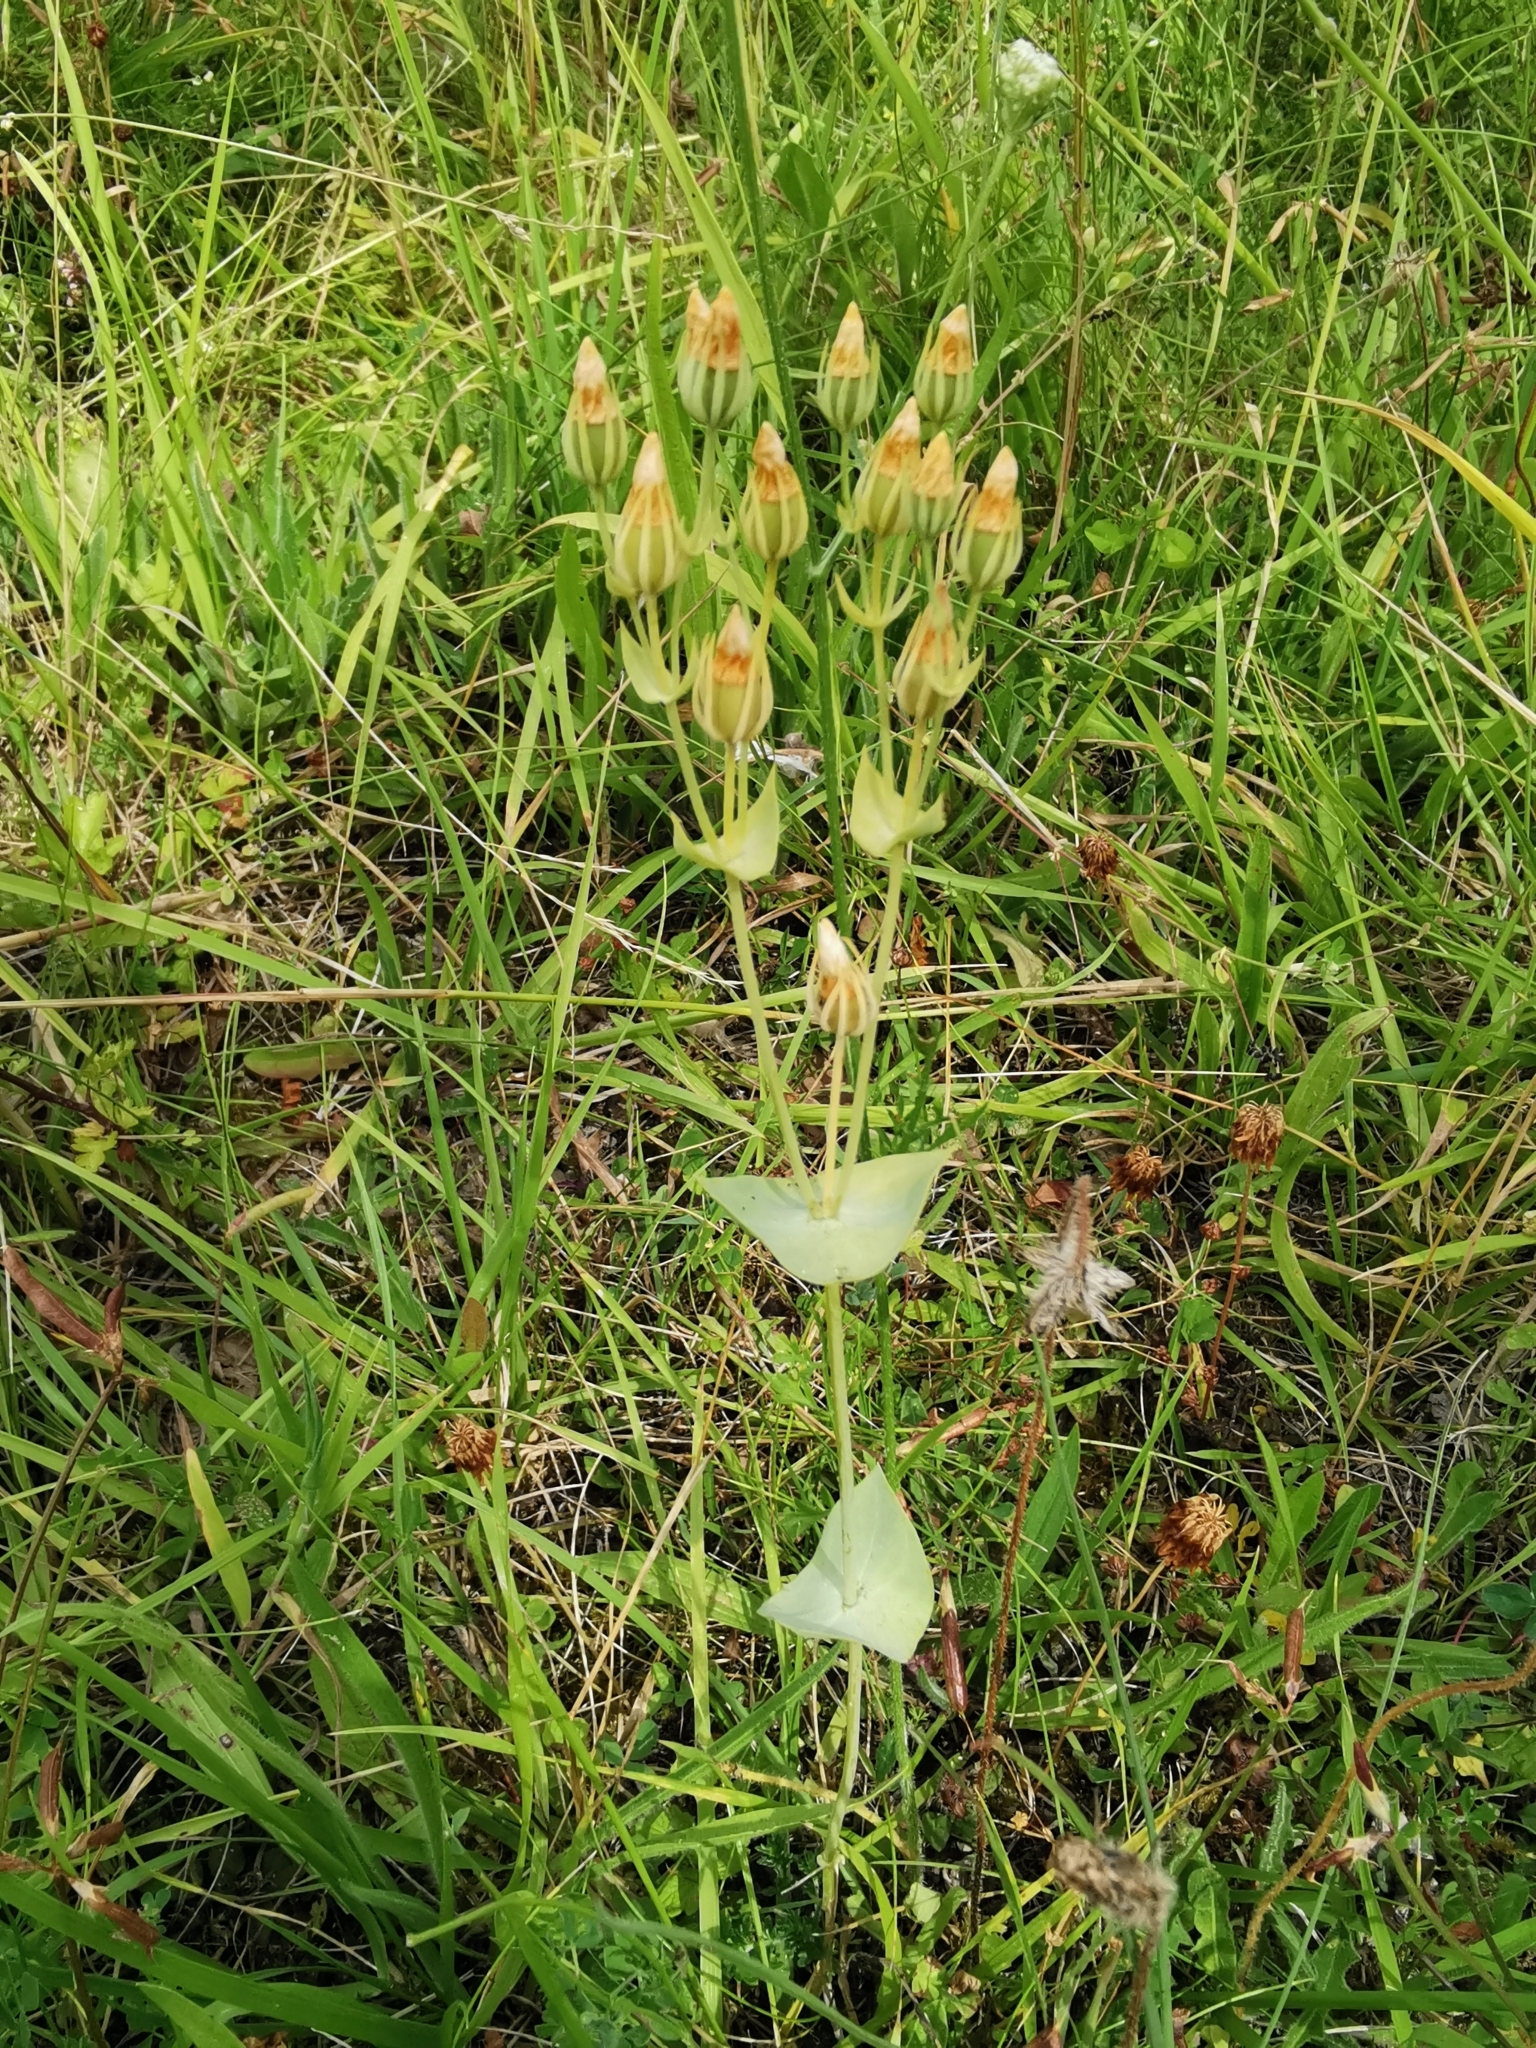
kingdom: Plantae
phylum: Tracheophyta
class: Magnoliopsida
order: Gentianales
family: Gentianaceae
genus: Blackstonia
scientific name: Blackstonia perfoliata
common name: Yellow-wort
